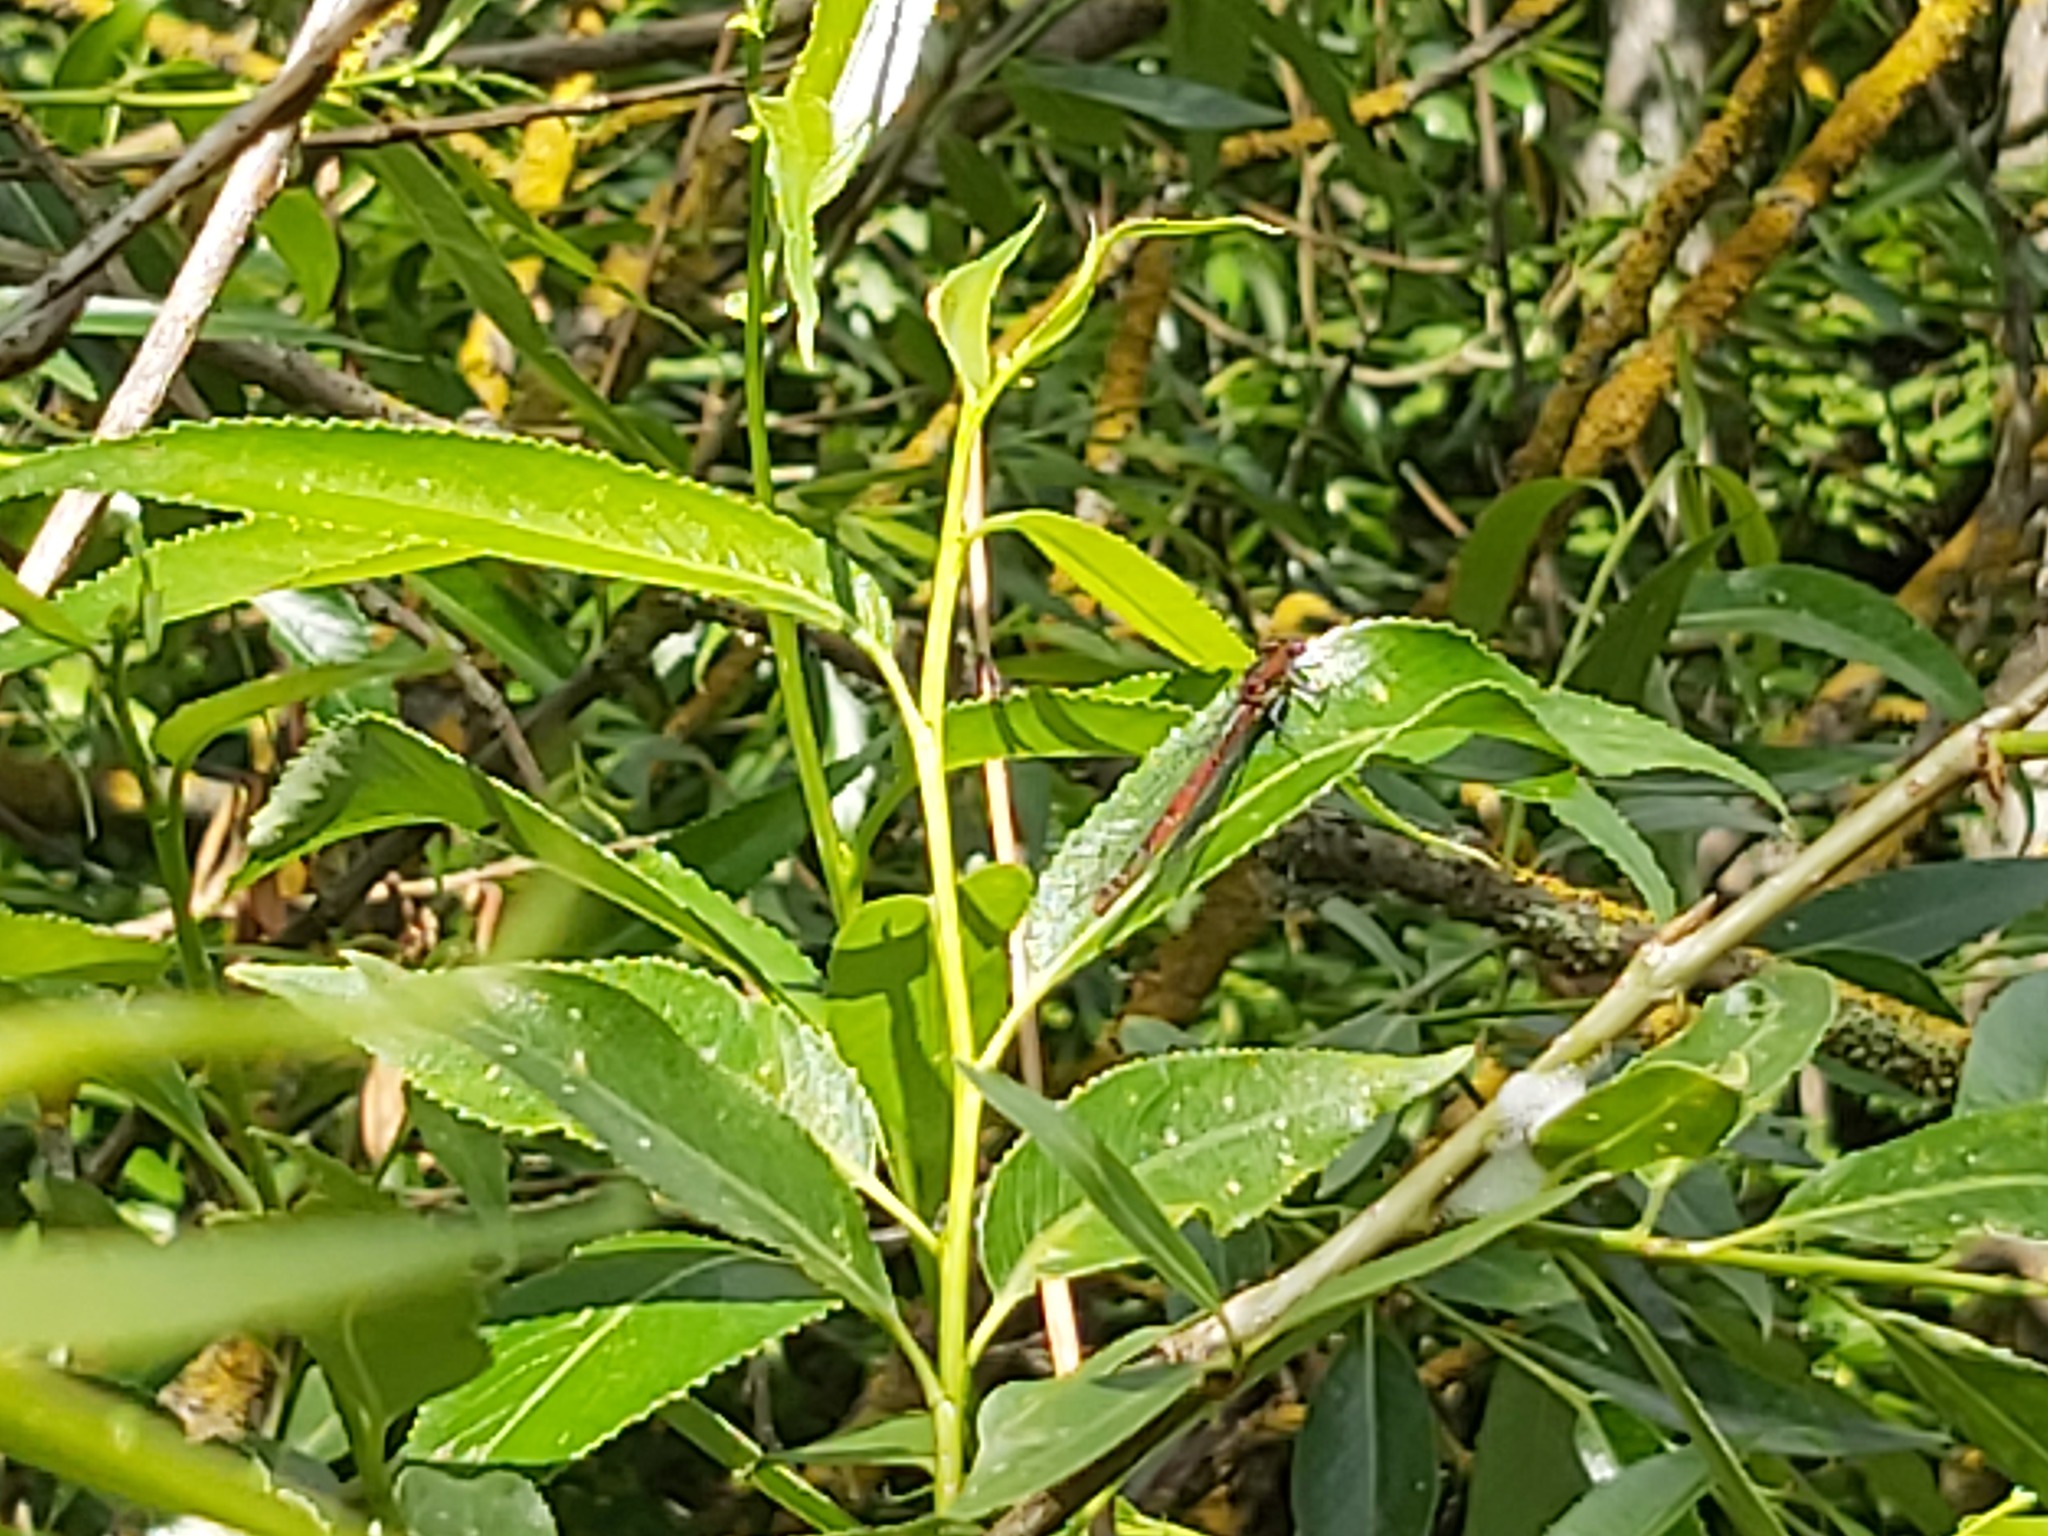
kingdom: Animalia
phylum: Arthropoda
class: Insecta
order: Odonata
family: Coenagrionidae
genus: Pyrrhosoma
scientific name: Pyrrhosoma nymphula
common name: Large red damsel
